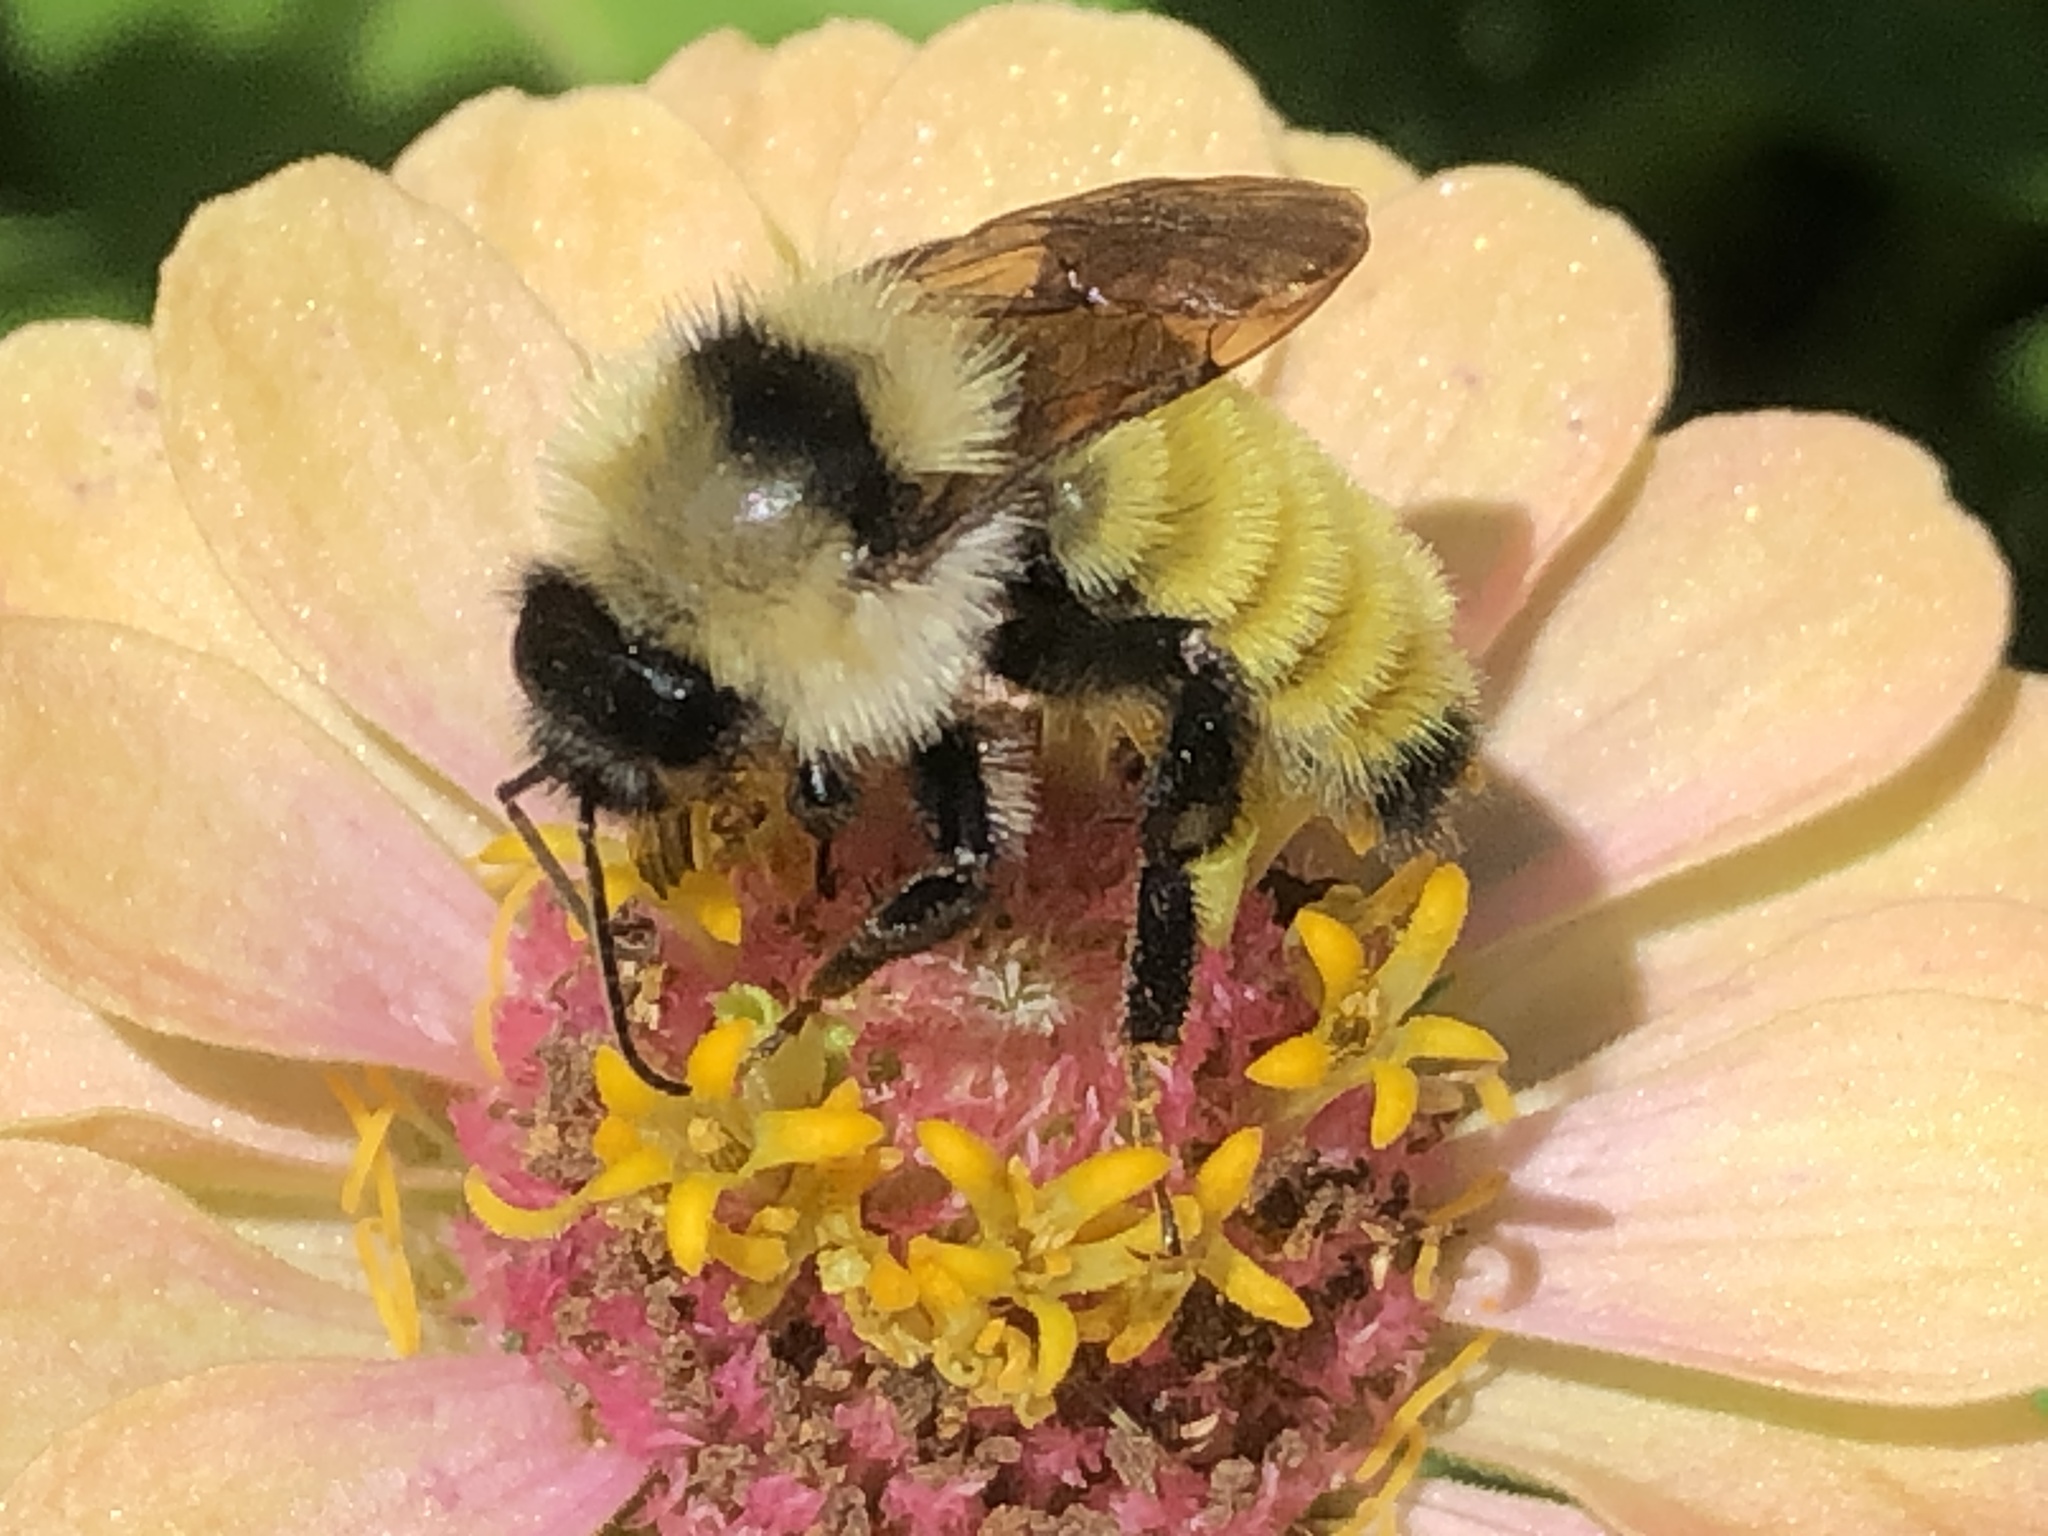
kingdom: Animalia
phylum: Arthropoda
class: Insecta
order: Hymenoptera
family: Apidae
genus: Bombus
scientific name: Bombus fervidus
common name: Yellow bumble bee
